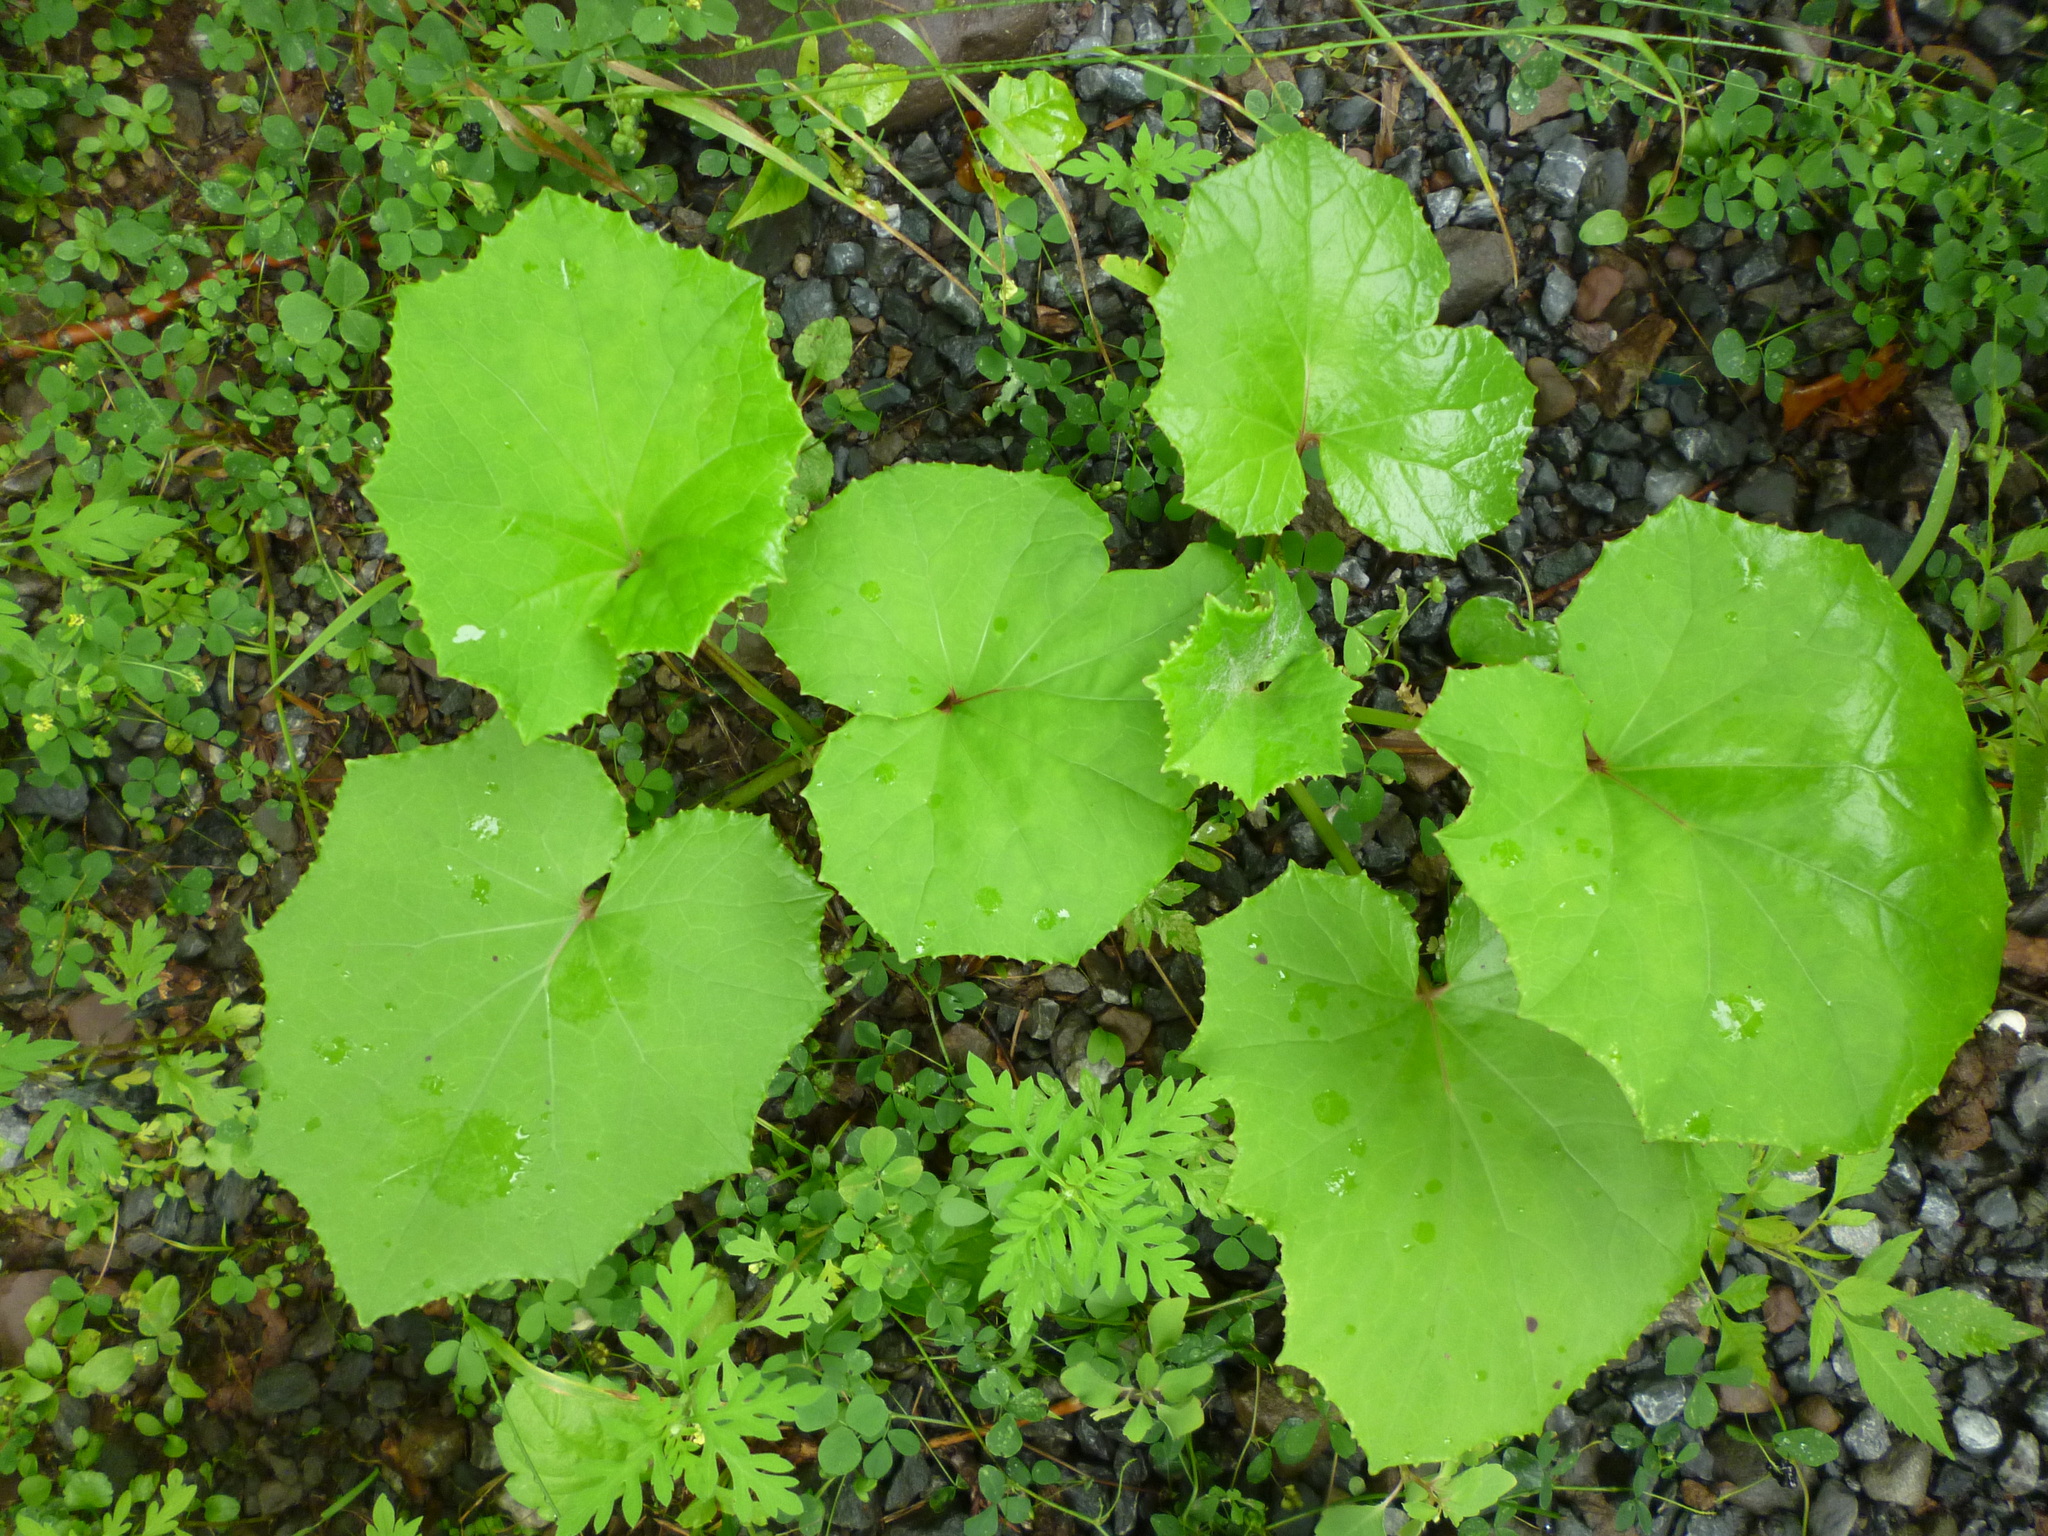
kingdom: Plantae
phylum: Tracheophyta
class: Magnoliopsida
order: Asterales
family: Asteraceae
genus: Tussilago
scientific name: Tussilago farfara
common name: Coltsfoot
